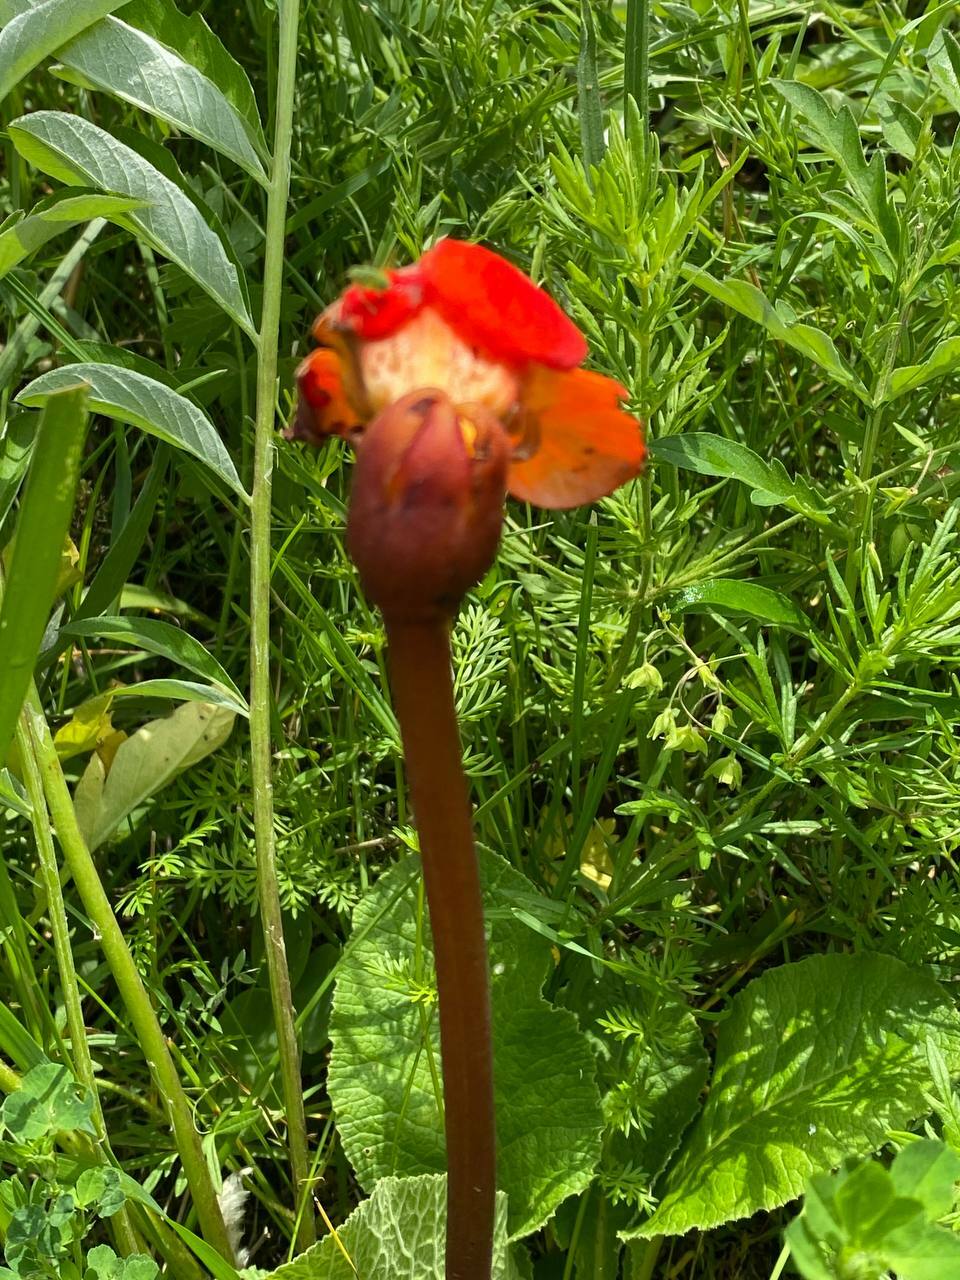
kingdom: Plantae
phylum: Tracheophyta
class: Magnoliopsida
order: Lamiales
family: Orobanchaceae
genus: Diphelypaea
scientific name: Diphelypaea coccinea
